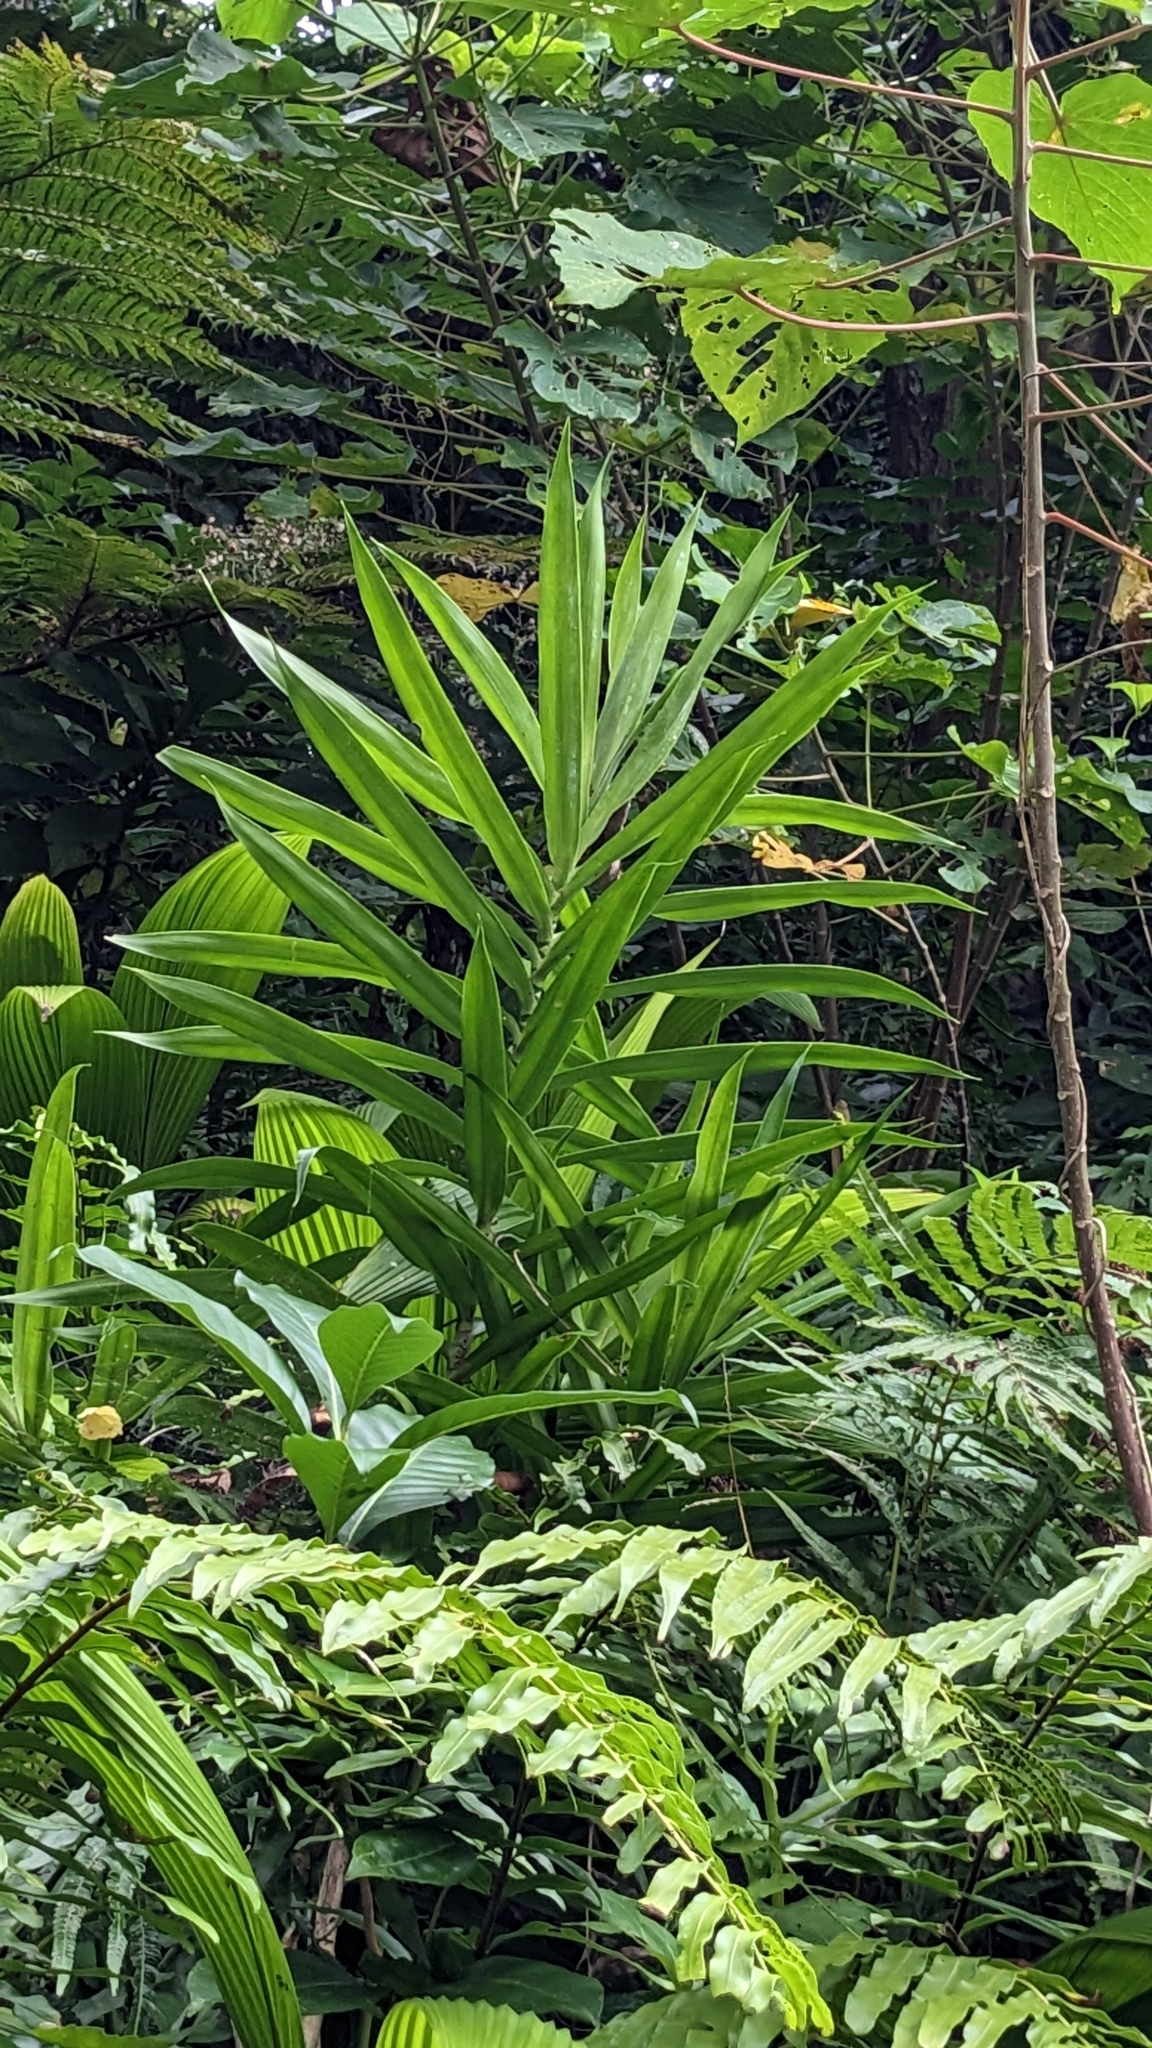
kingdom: Plantae
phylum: Tracheophyta
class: Liliopsida
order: Asparagales
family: Asparagaceae
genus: Dracaena
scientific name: Dracaena angustifolia
